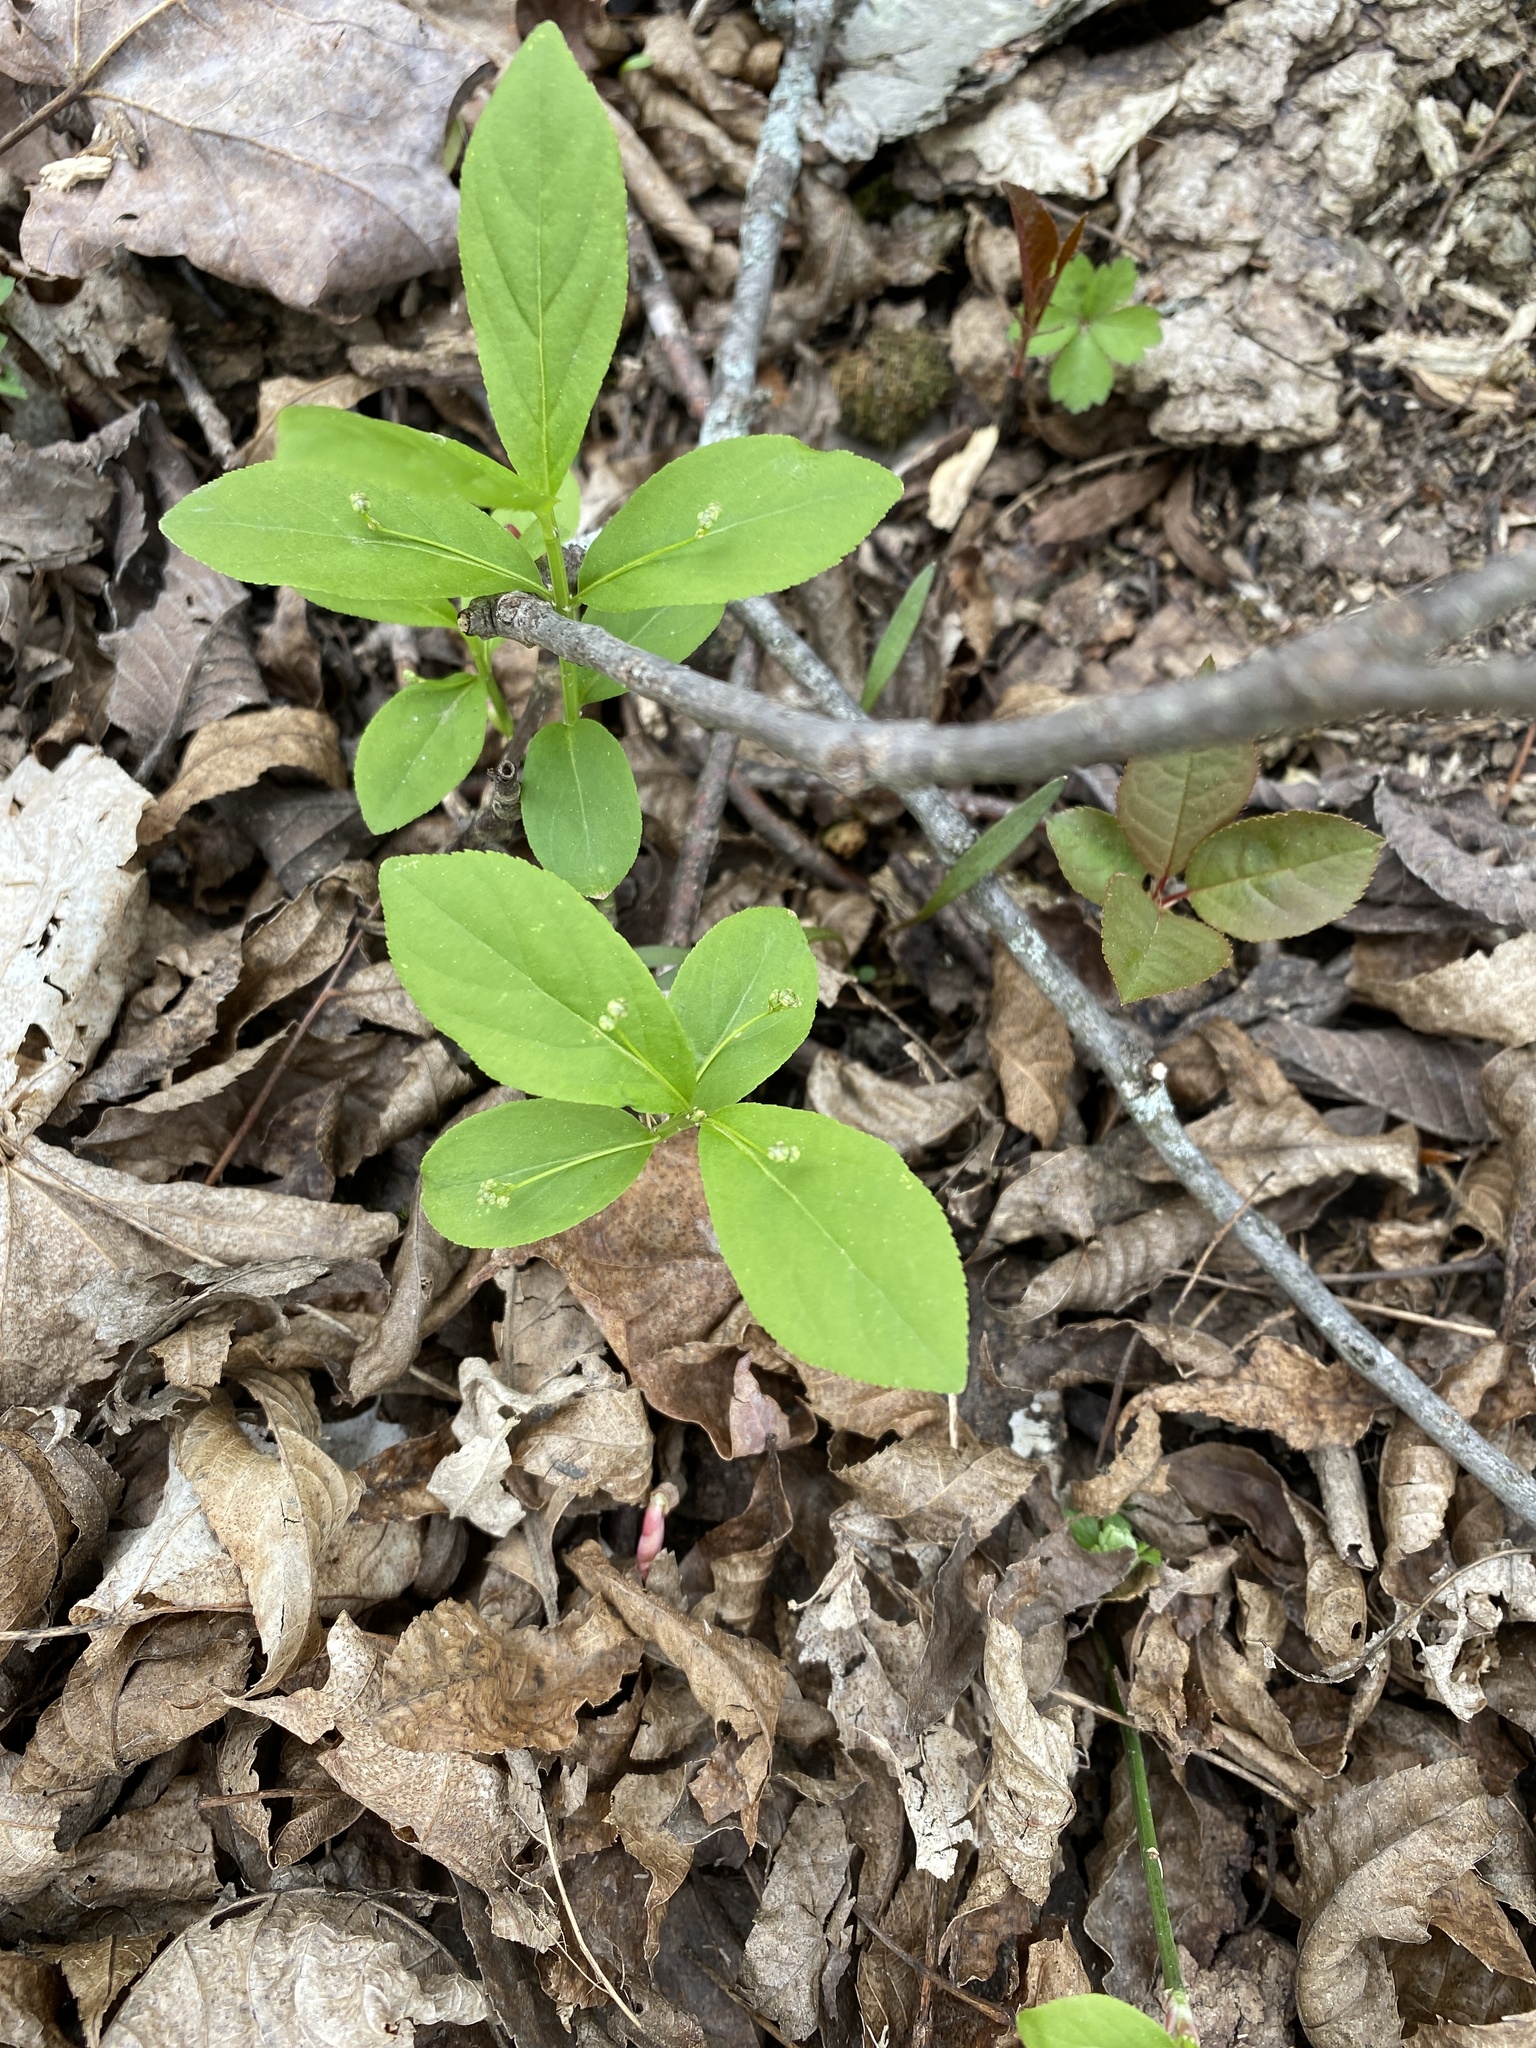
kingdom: Plantae
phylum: Tracheophyta
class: Magnoliopsida
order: Celastrales
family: Celastraceae
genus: Euonymus
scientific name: Euonymus obovatus
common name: Running strawberry-bush
